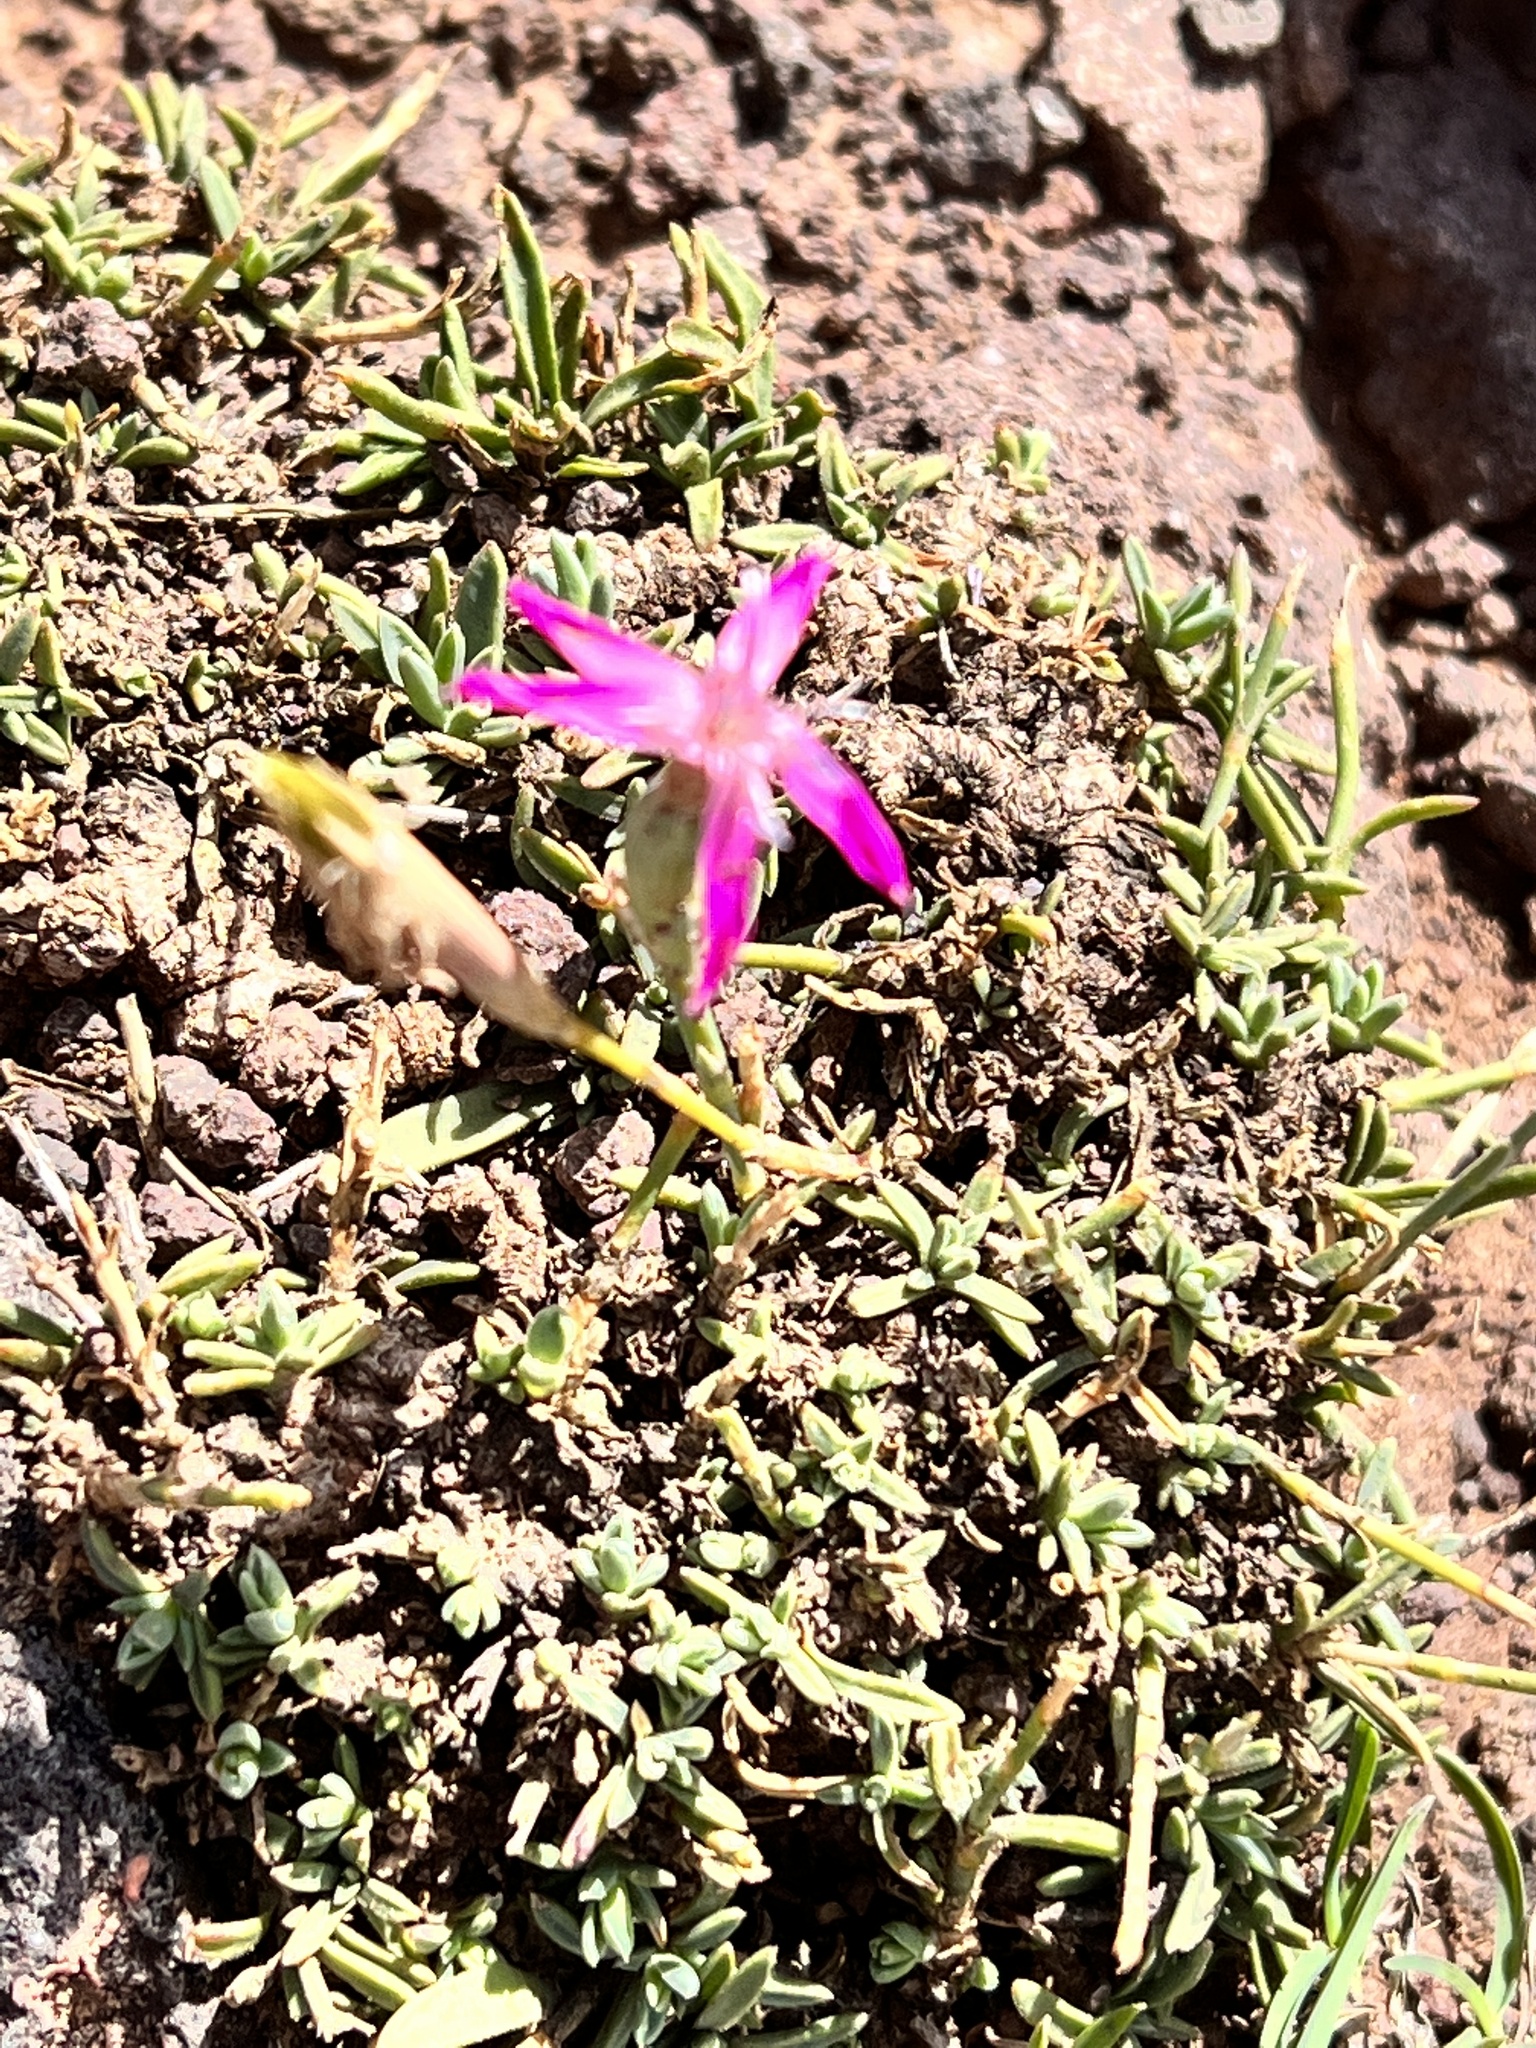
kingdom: Plantae
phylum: Tracheophyta
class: Magnoliopsida
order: Caryophyllales
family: Caryophyllaceae
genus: Dianthus
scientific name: Dianthus lusitanus
